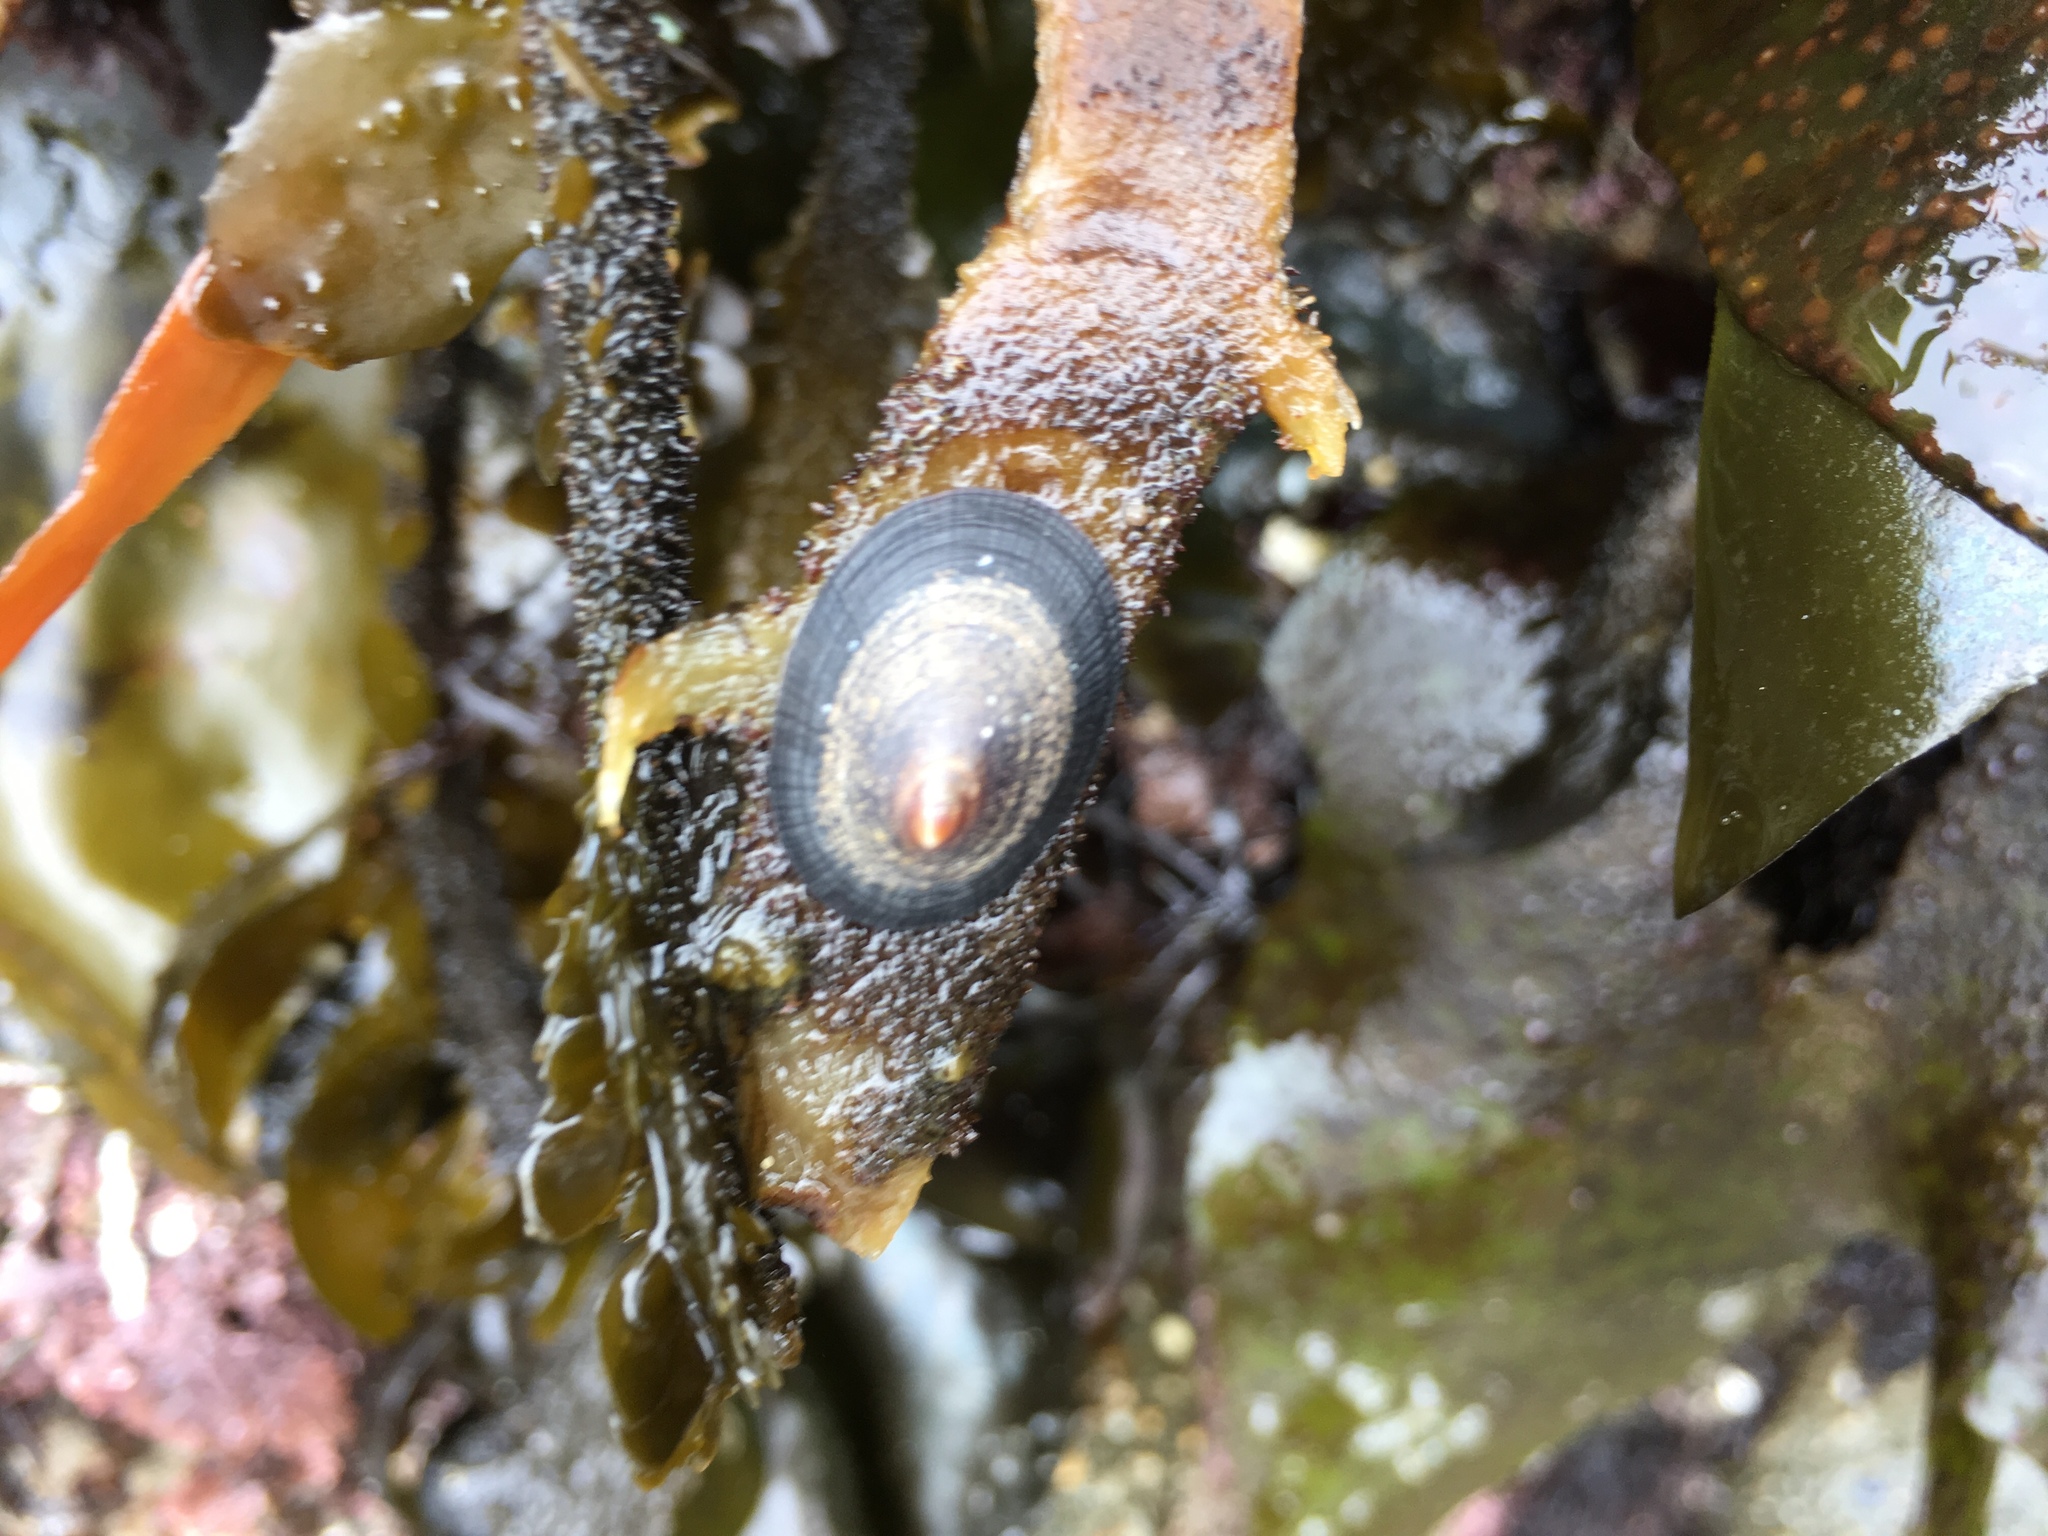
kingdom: Animalia
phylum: Mollusca
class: Gastropoda
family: Lottiidae
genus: Discurria
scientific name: Discurria insessa
